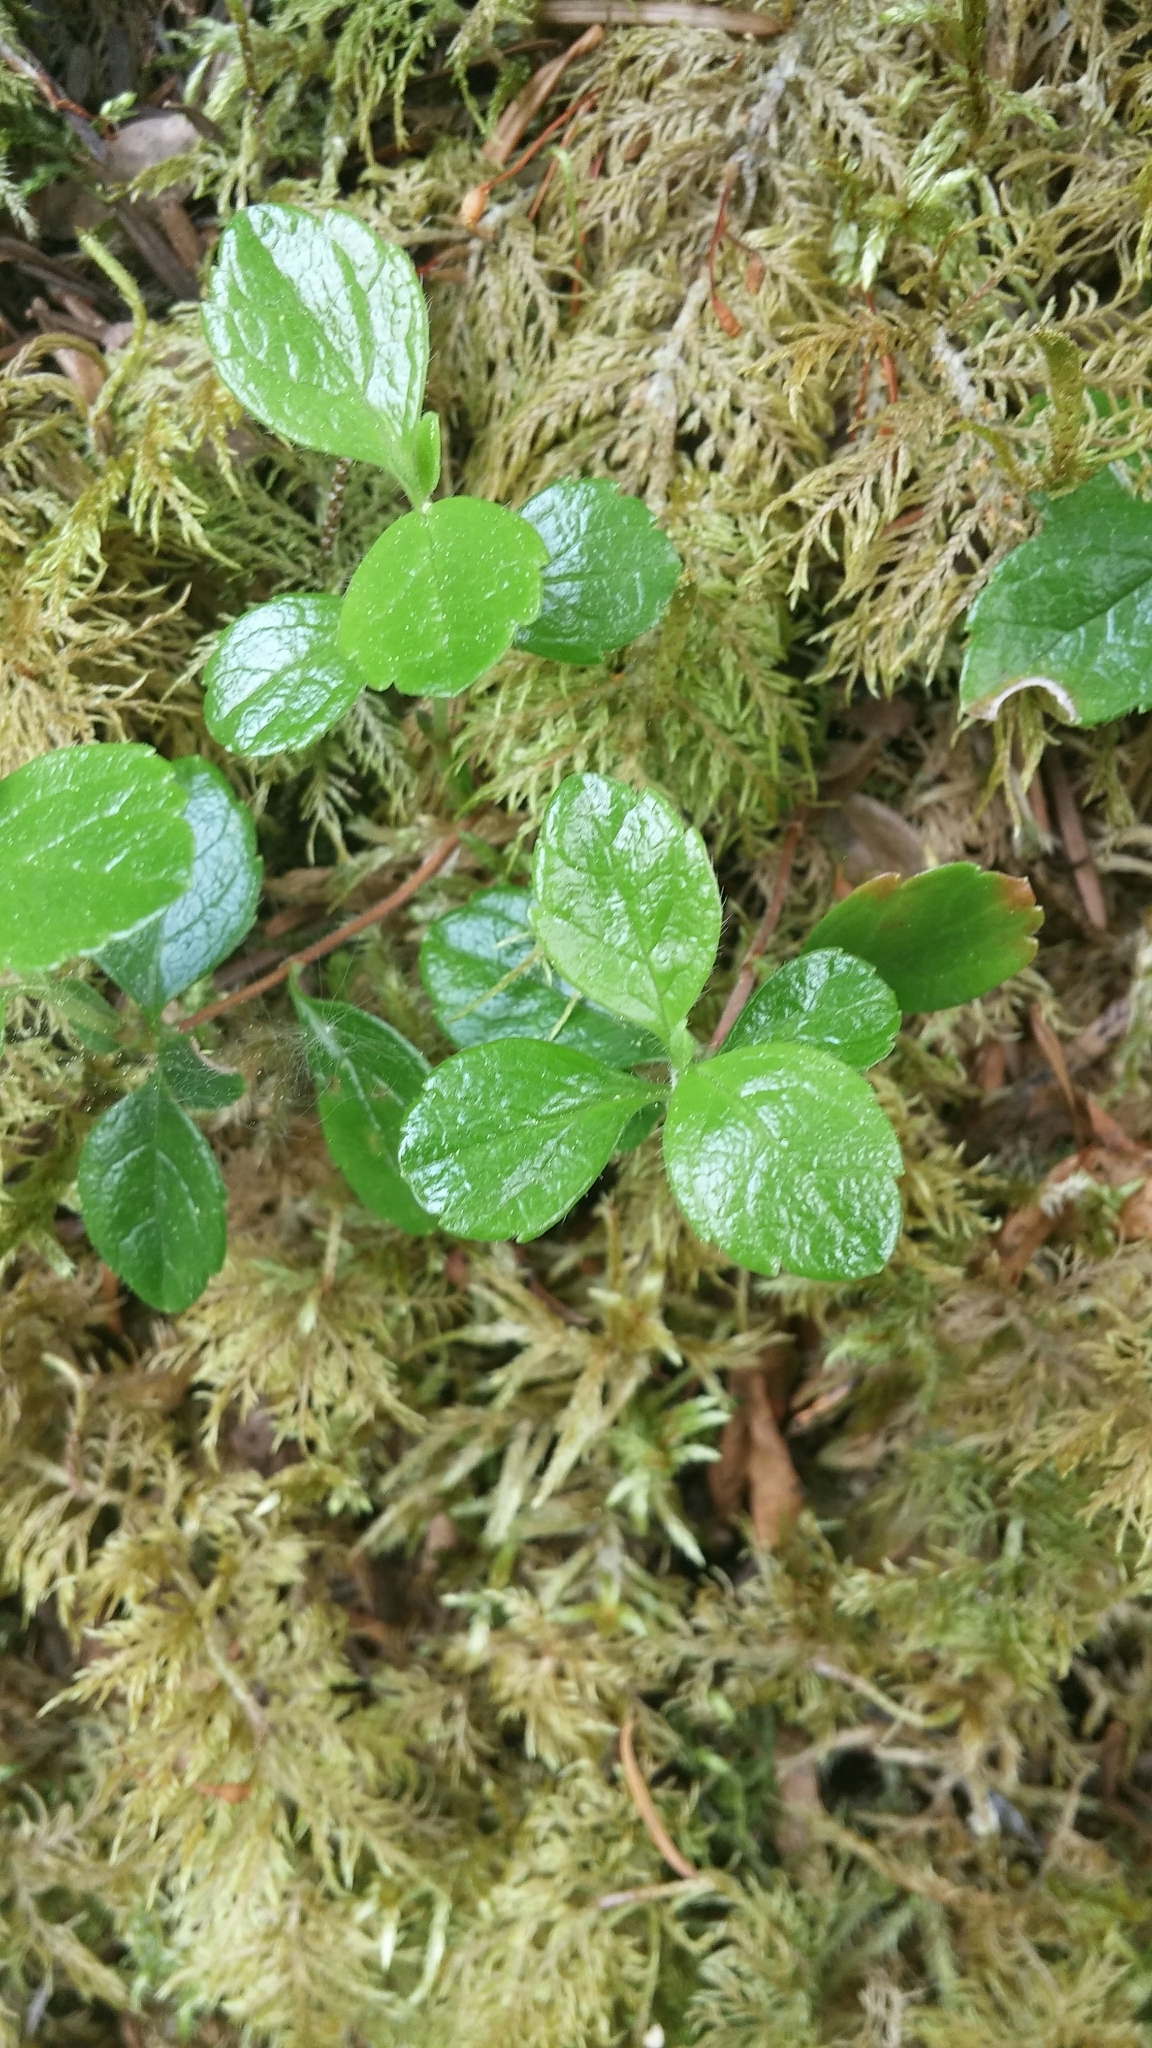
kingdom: Plantae
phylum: Tracheophyta
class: Magnoliopsida
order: Dipsacales
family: Caprifoliaceae
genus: Linnaea
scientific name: Linnaea borealis
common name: Twinflower
